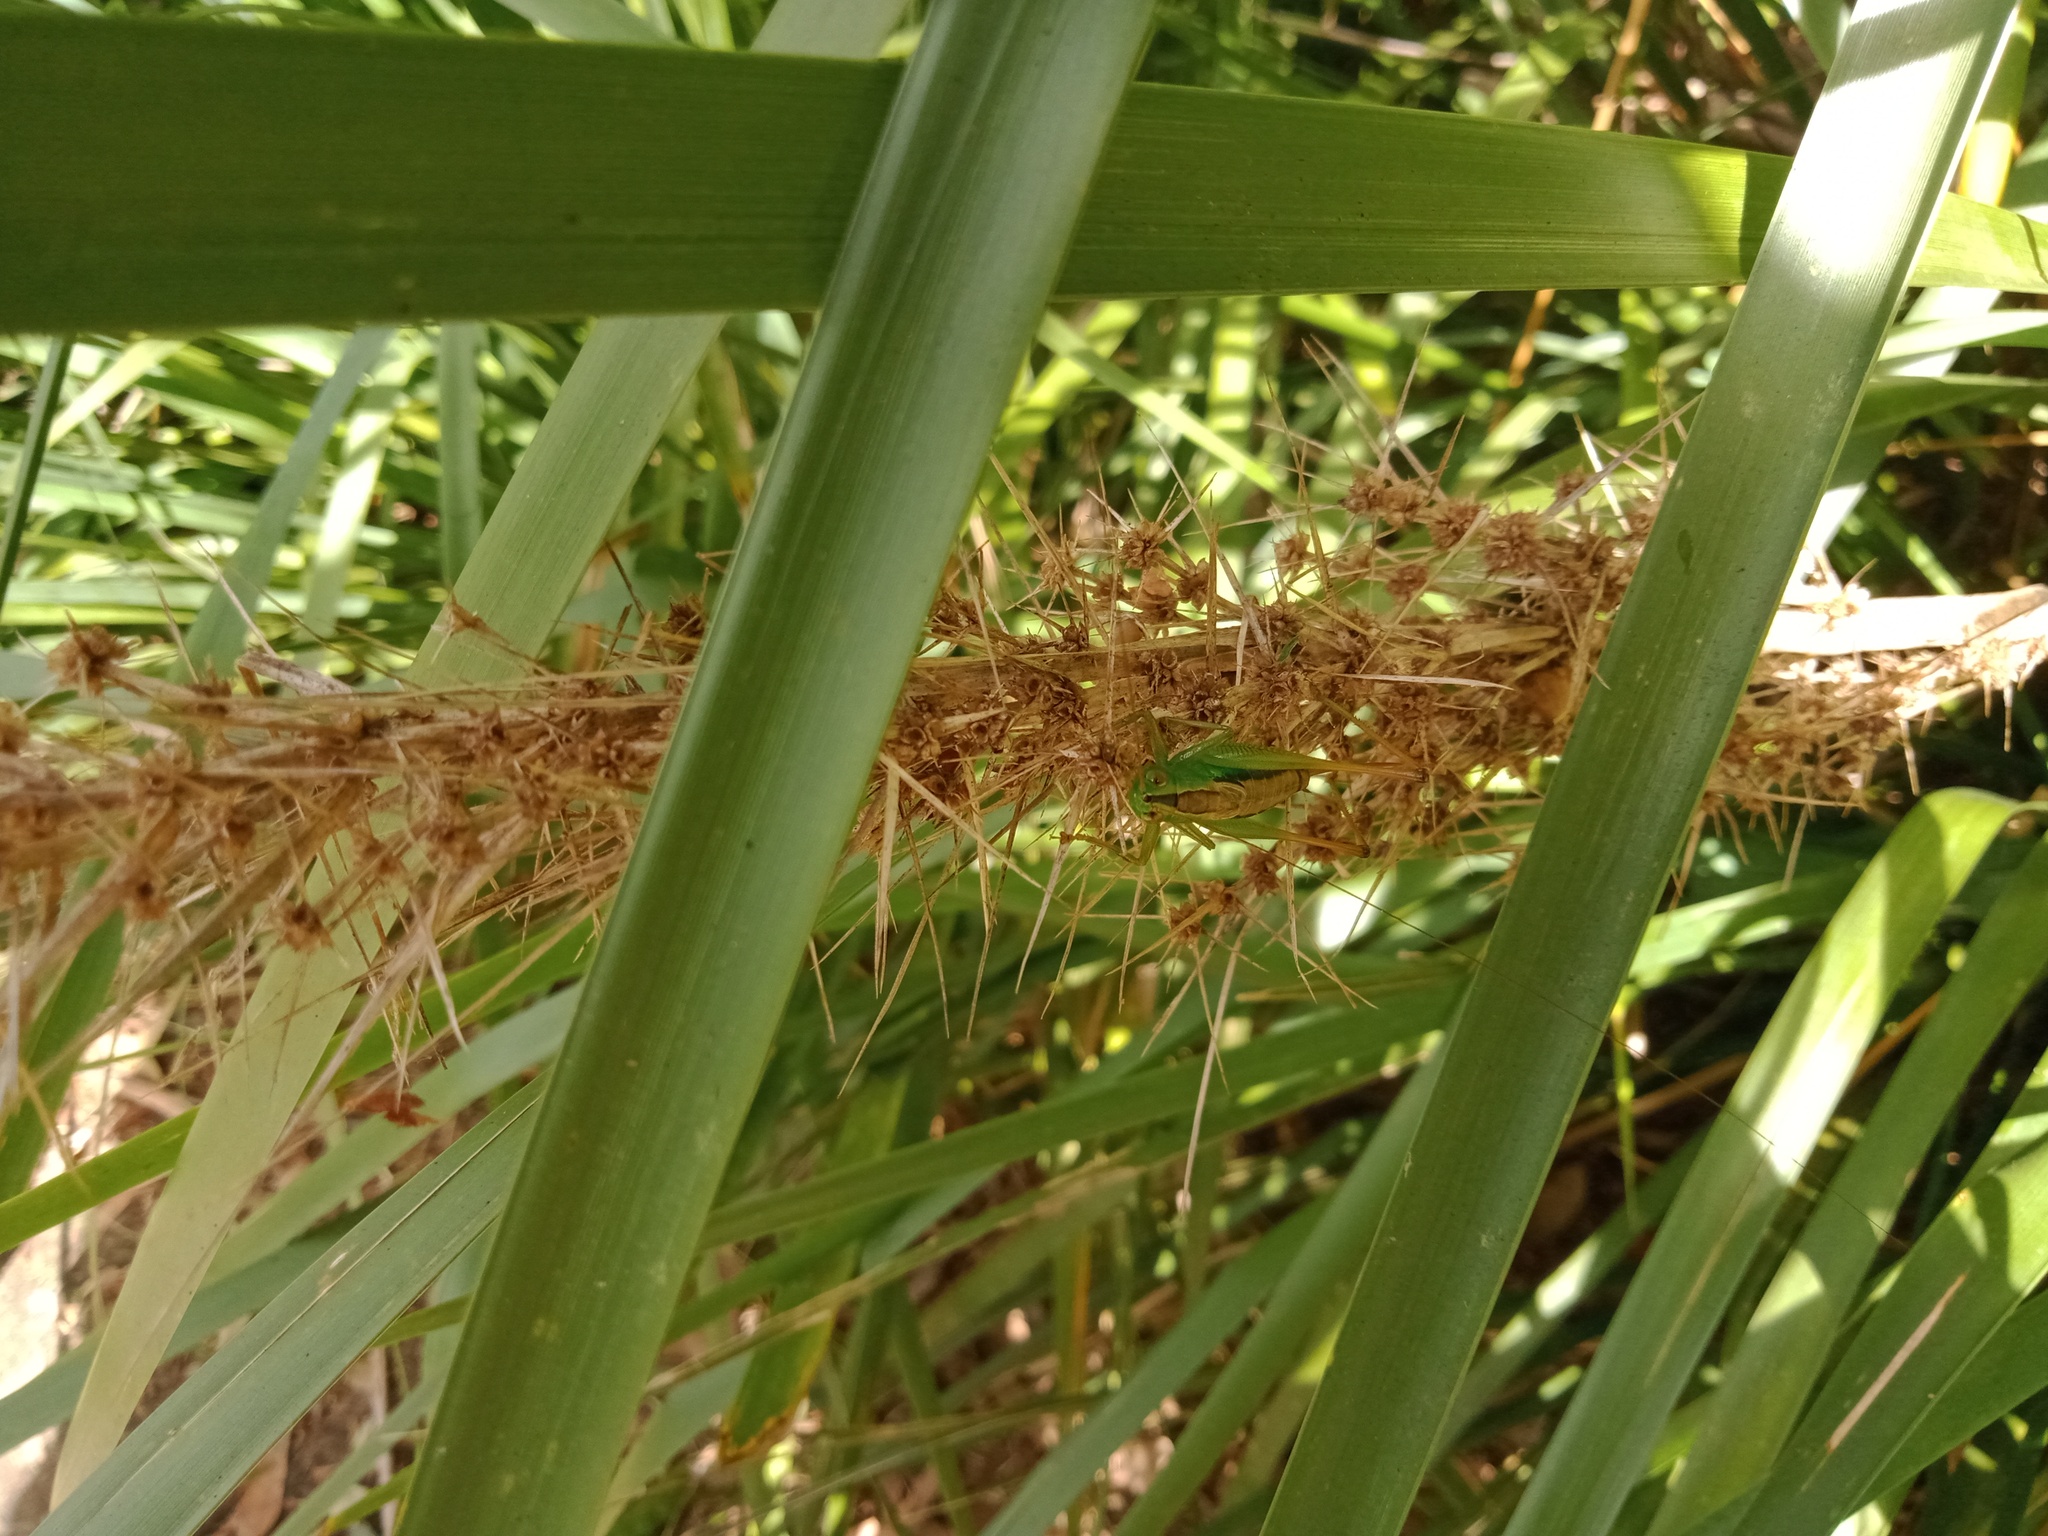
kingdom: Animalia
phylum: Arthropoda
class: Insecta
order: Orthoptera
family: Tettigoniidae
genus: Conocephalus
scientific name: Conocephalus semivittatus
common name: Blackish meadow katydid
